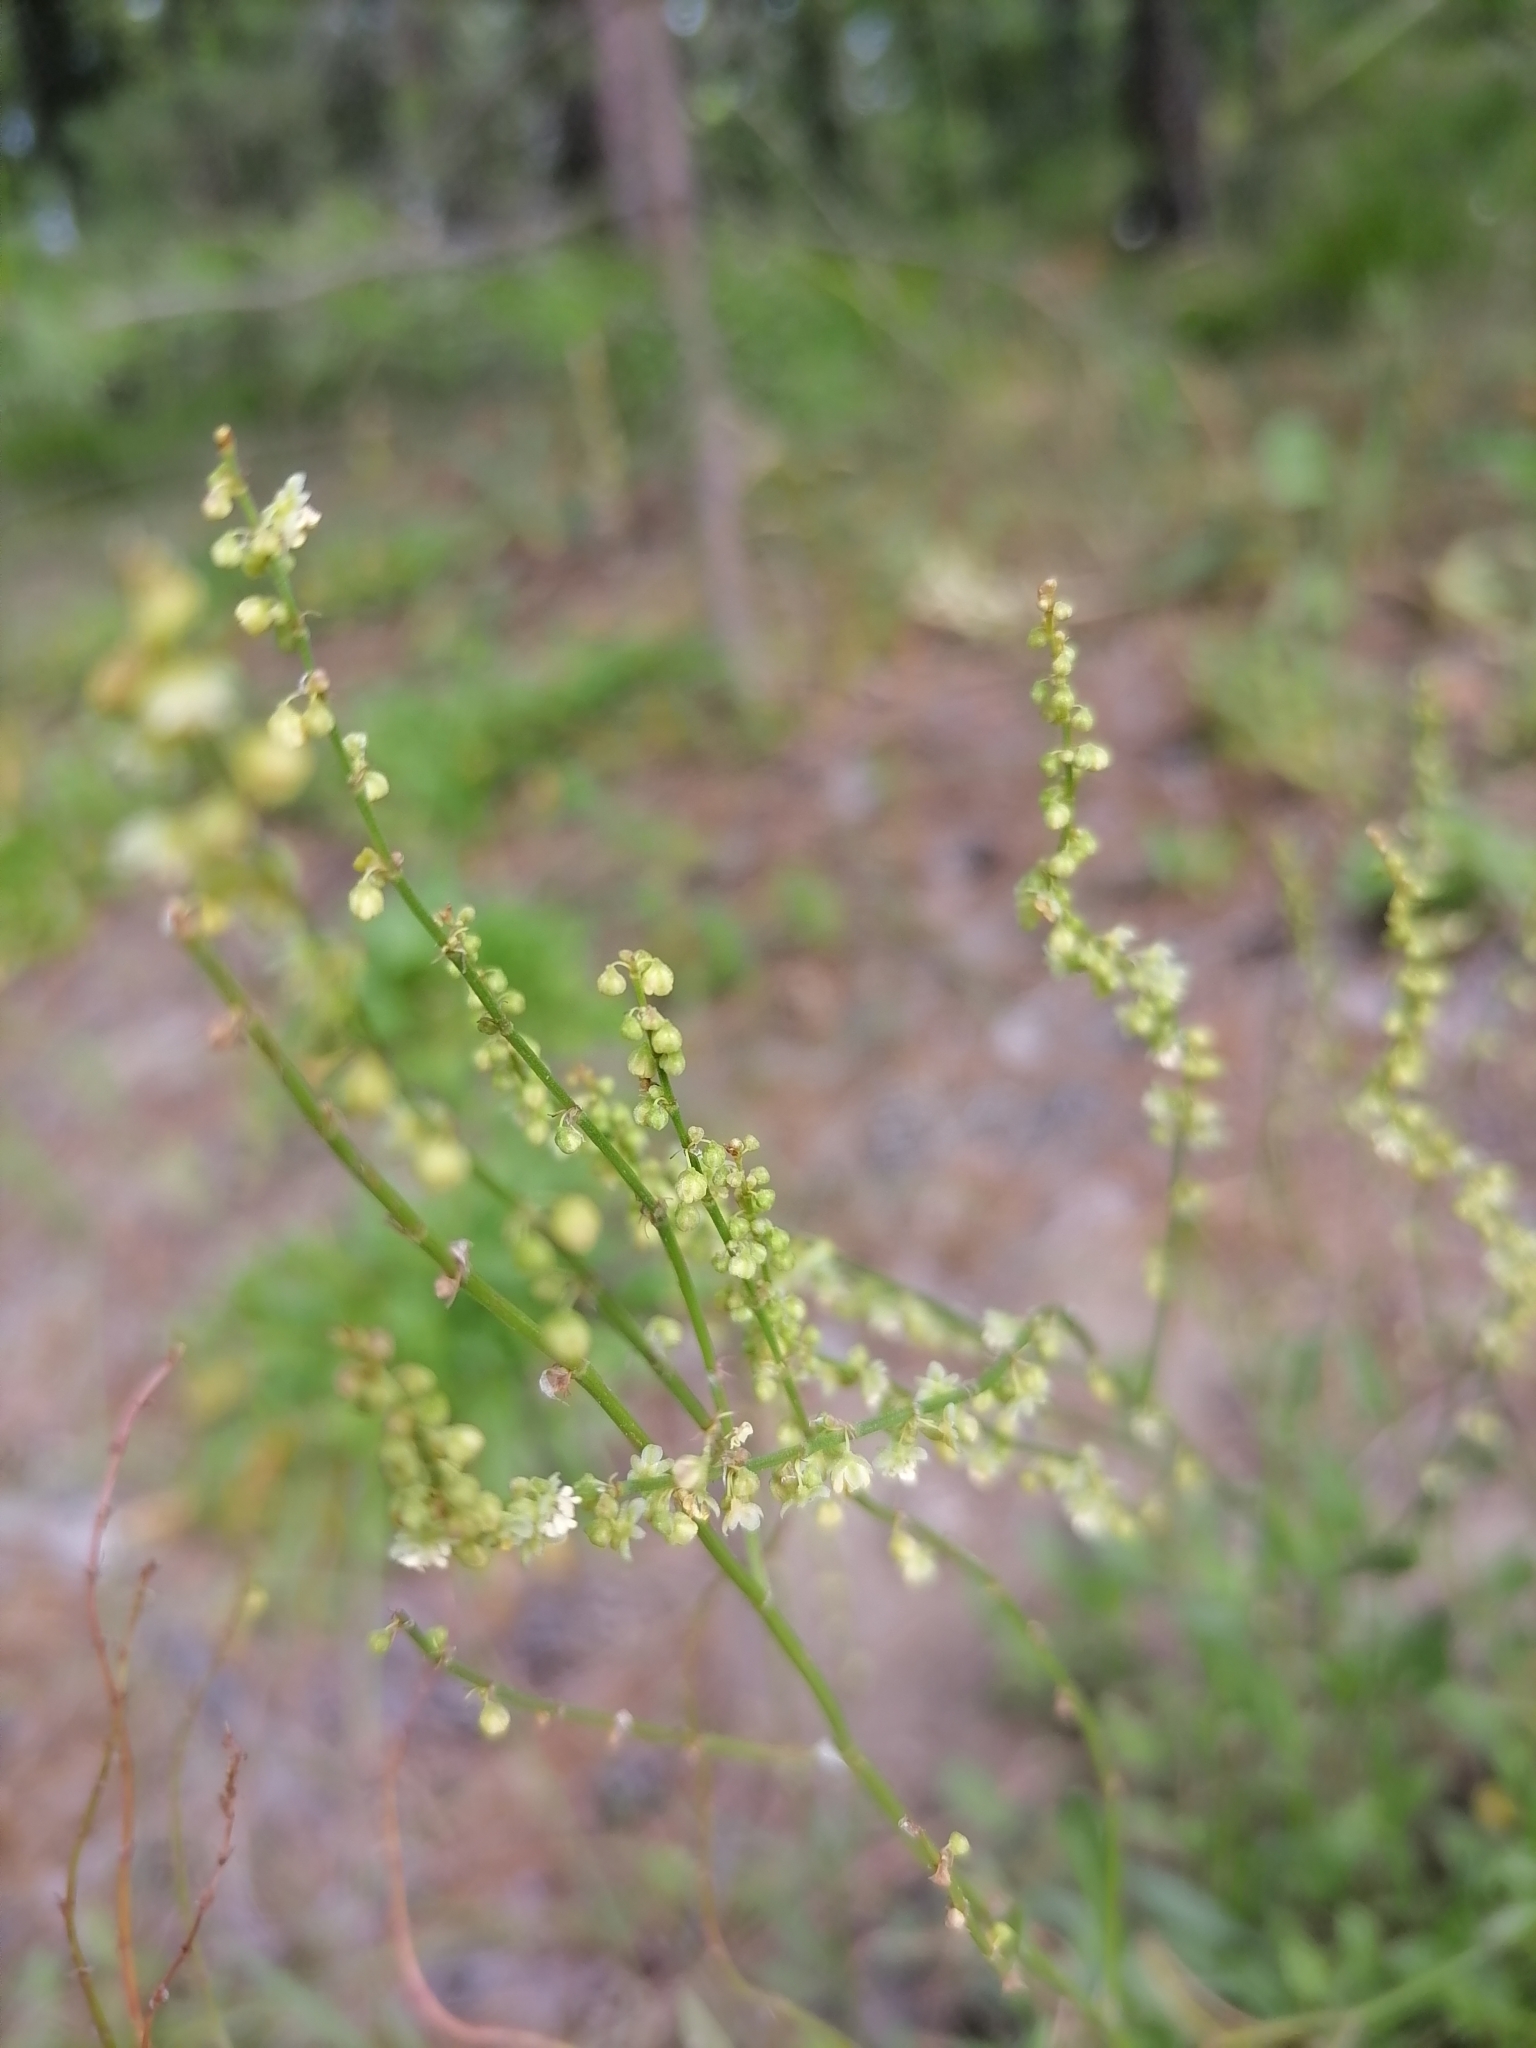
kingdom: Plantae
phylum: Tracheophyta
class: Magnoliopsida
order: Caryophyllales
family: Polygonaceae
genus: Rumex
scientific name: Rumex acetosella
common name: Common sheep sorrel
